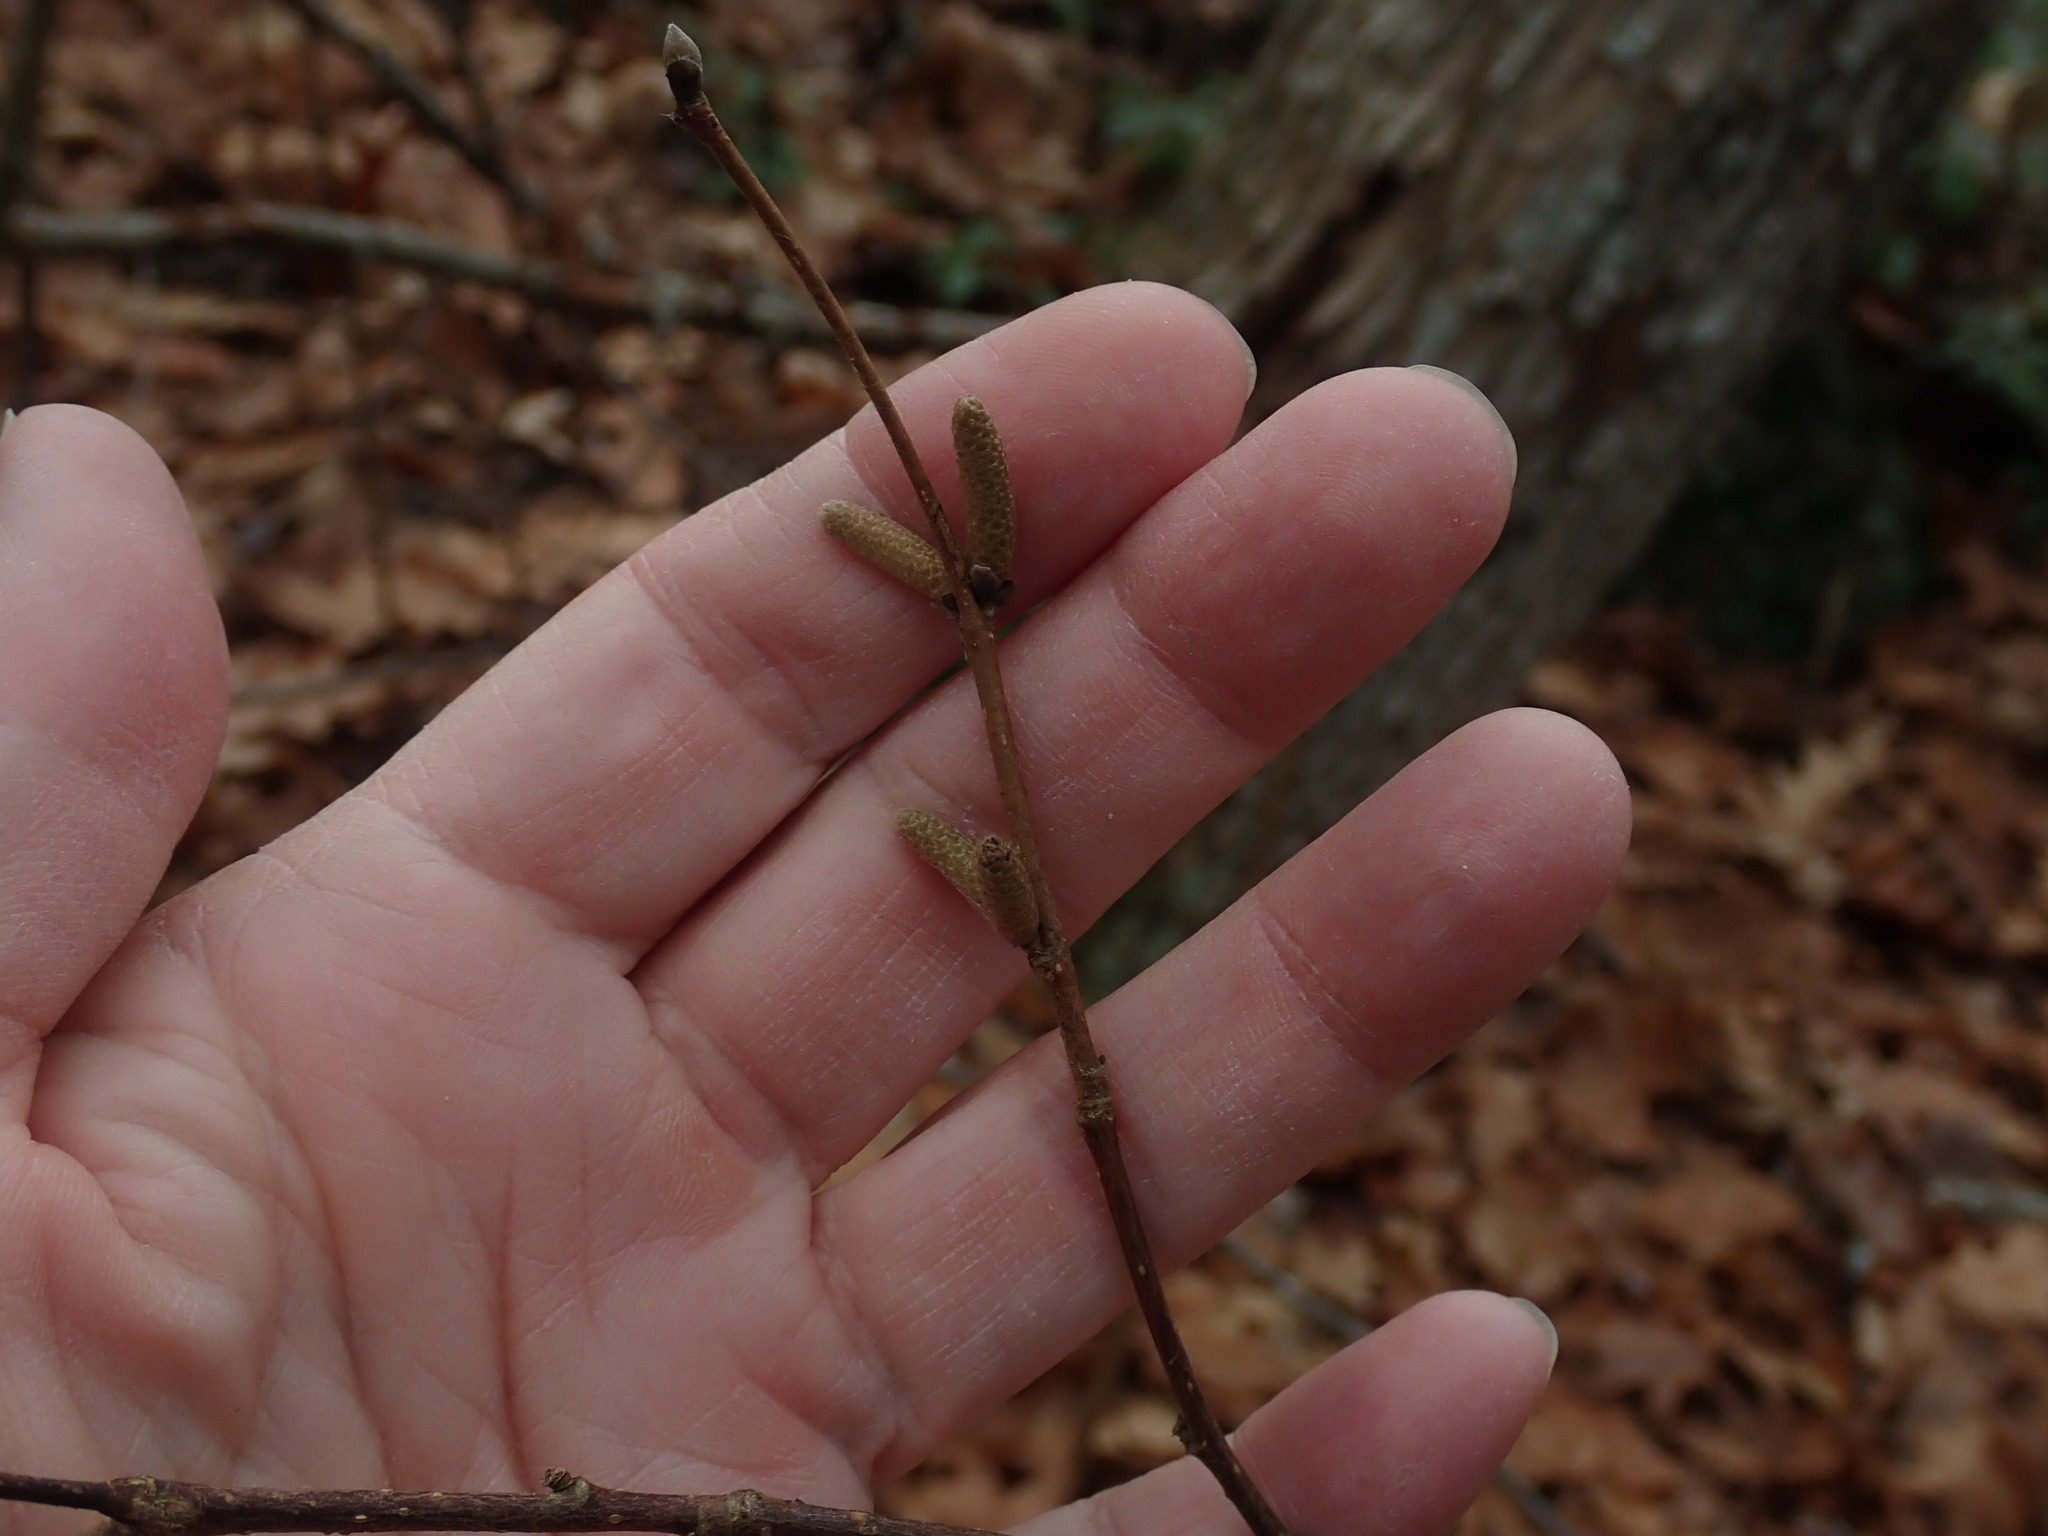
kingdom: Plantae
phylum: Tracheophyta
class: Magnoliopsida
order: Fagales
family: Betulaceae
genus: Corylus
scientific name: Corylus cornuta
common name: Beaked hazel
